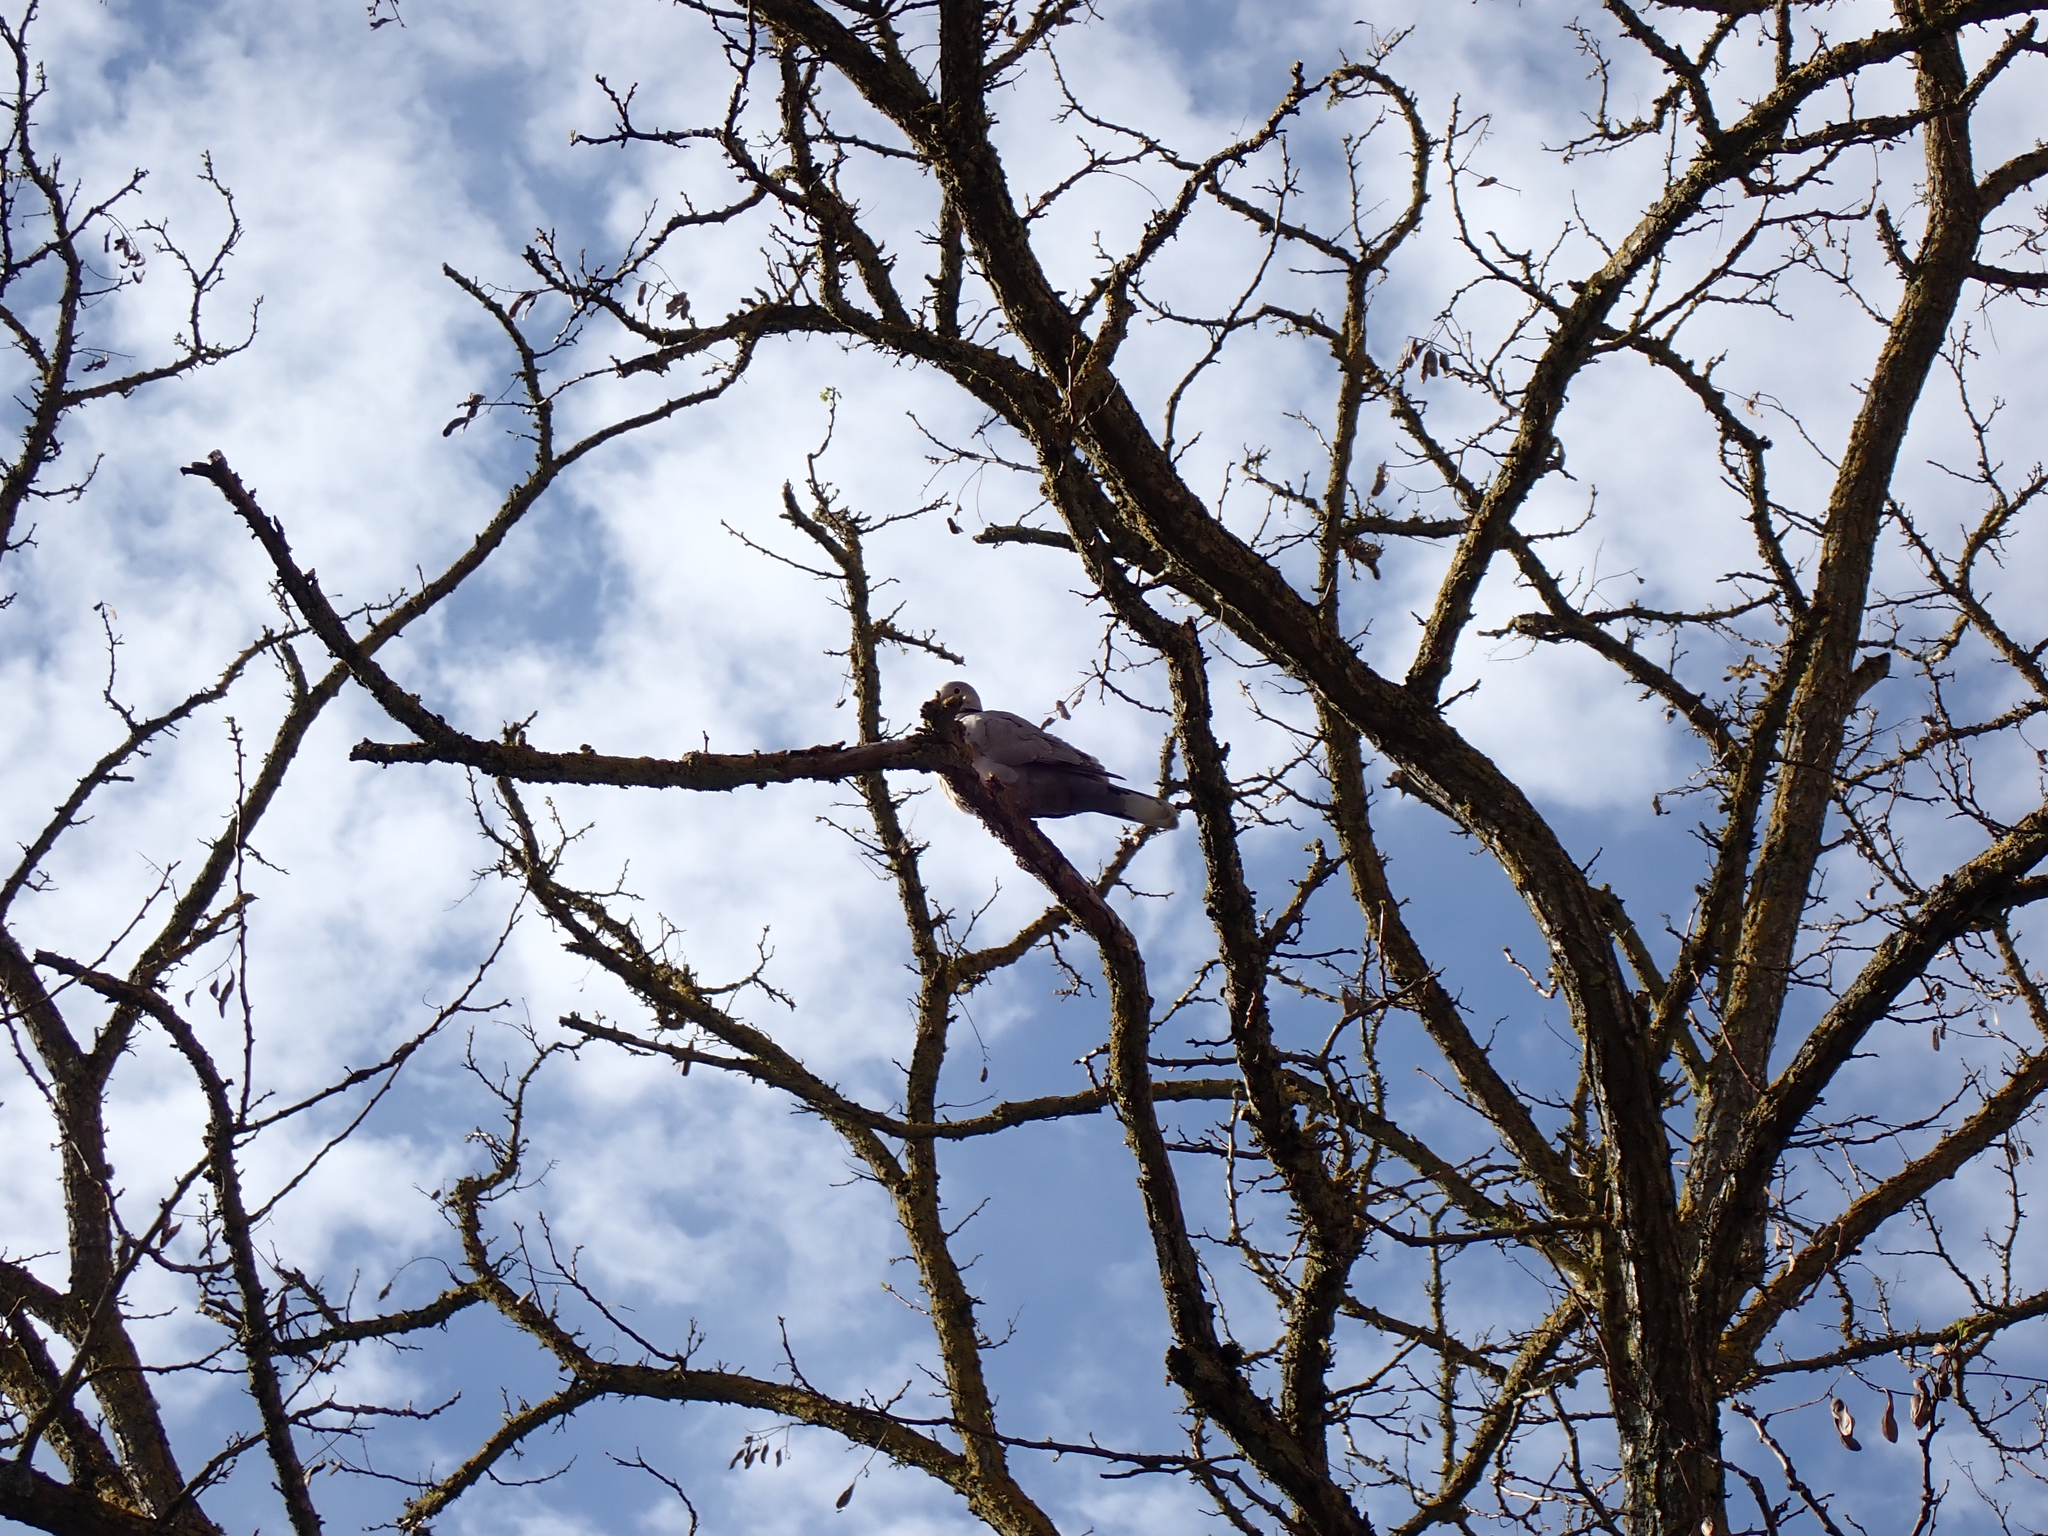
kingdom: Animalia
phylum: Chordata
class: Aves
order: Columbiformes
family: Columbidae
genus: Streptopelia
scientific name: Streptopelia decaocto
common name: Eurasian collared dove
